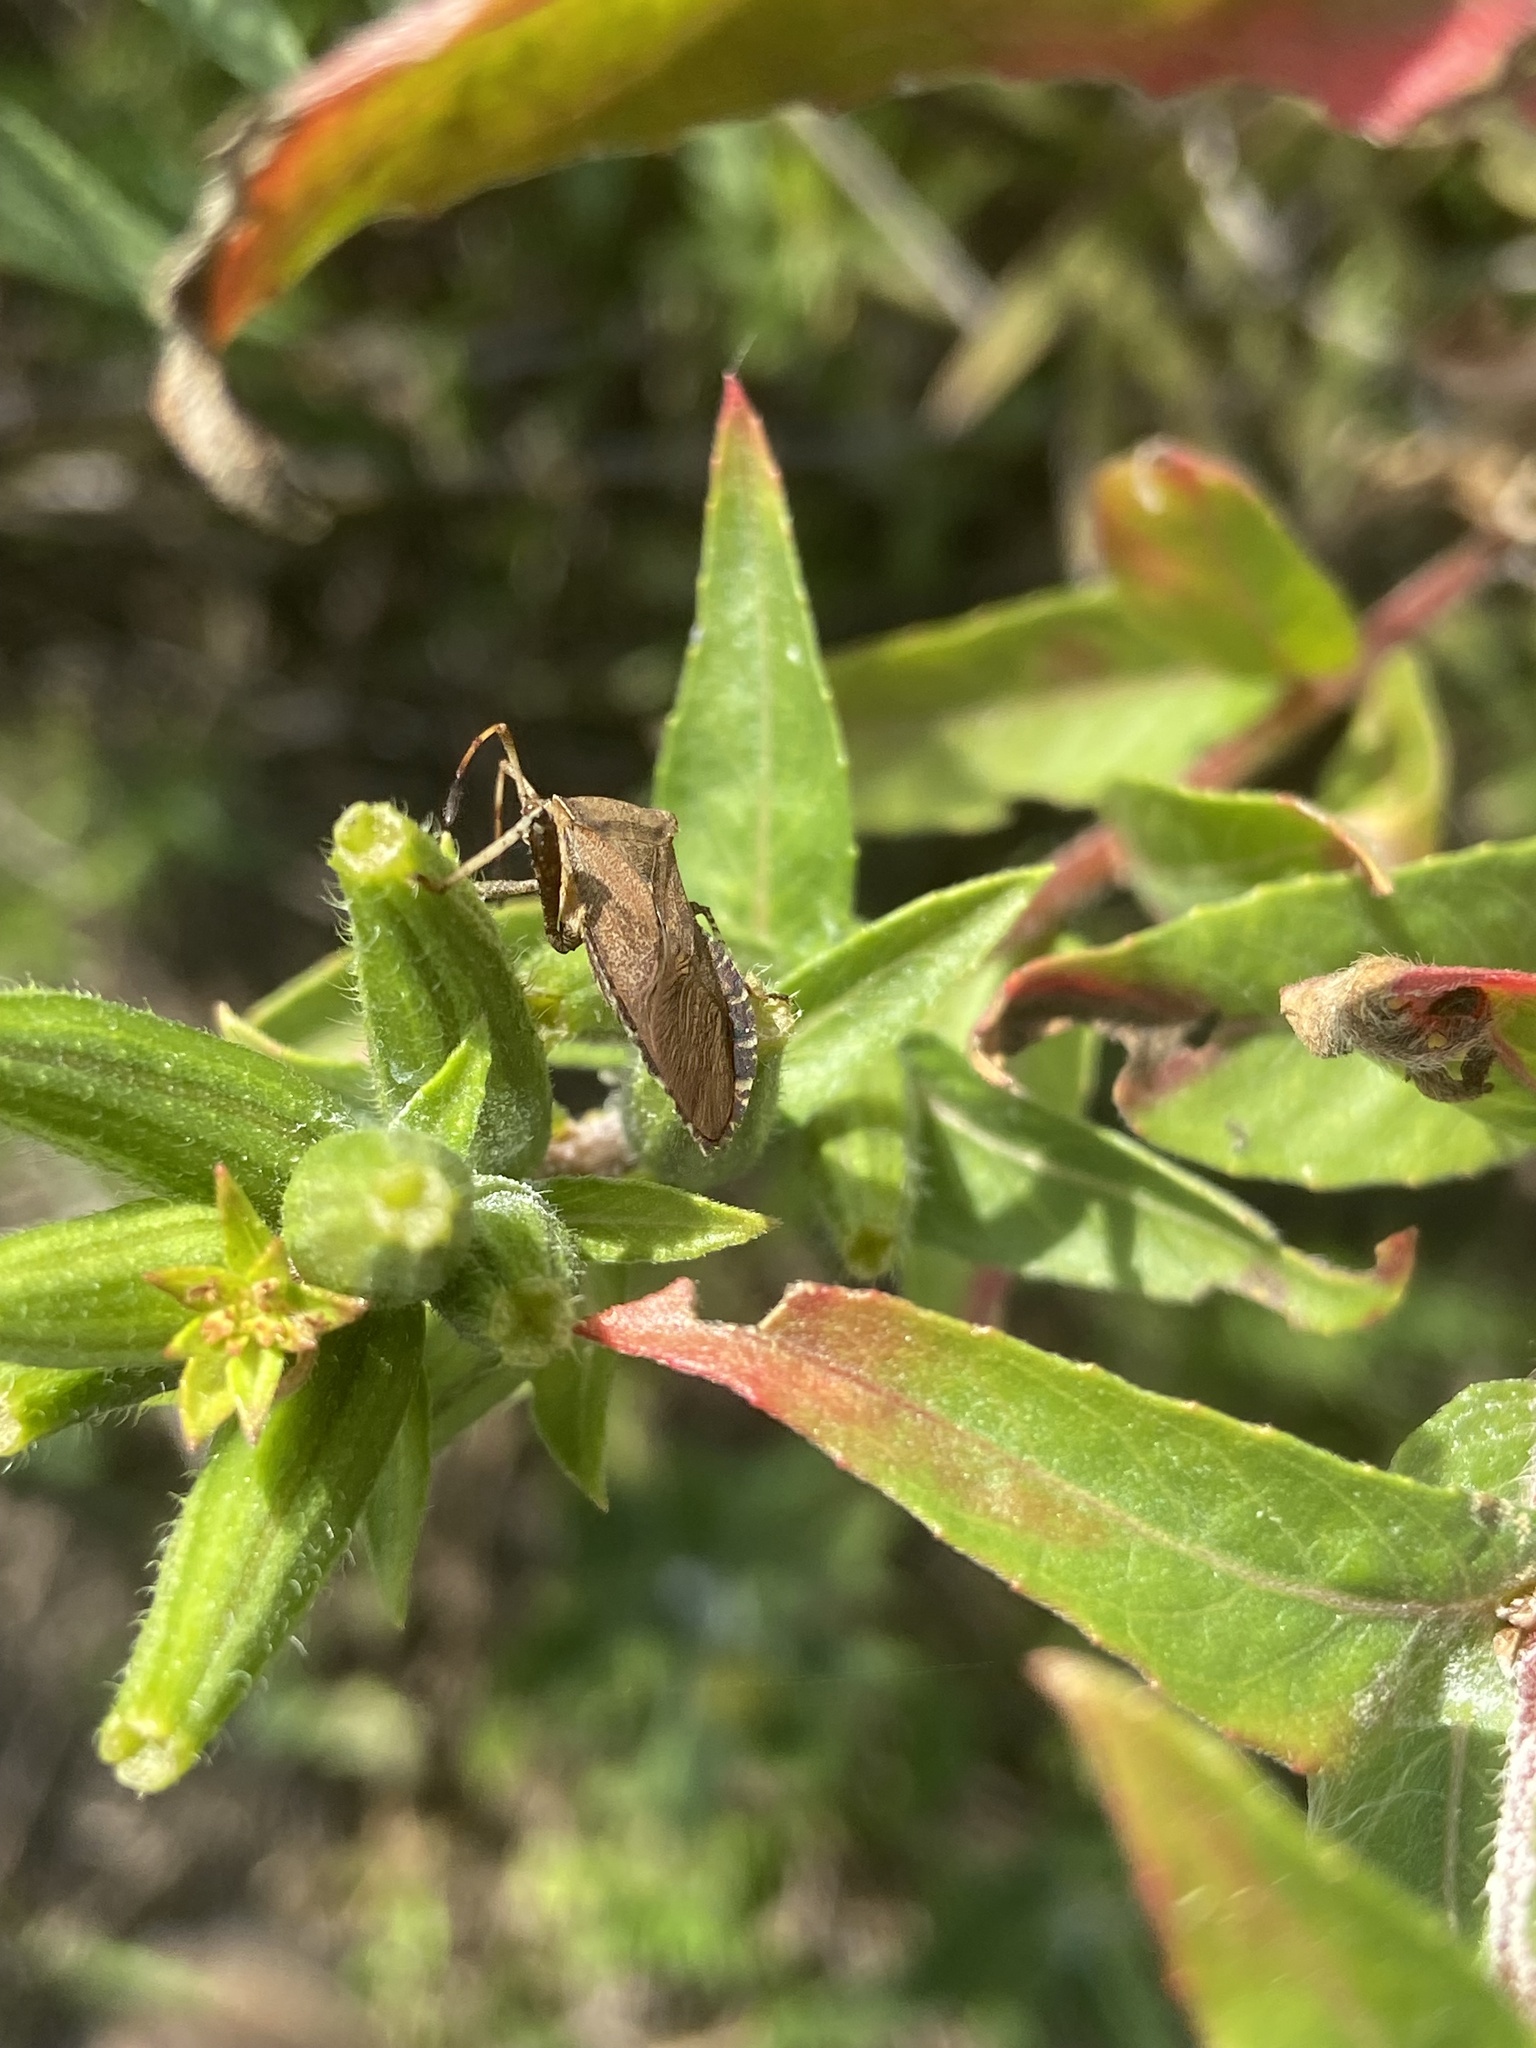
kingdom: Animalia
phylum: Arthropoda
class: Insecta
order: Hemiptera
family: Coreidae
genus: Euthochtha
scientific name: Euthochtha galeator
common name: Helmeted squash bug
